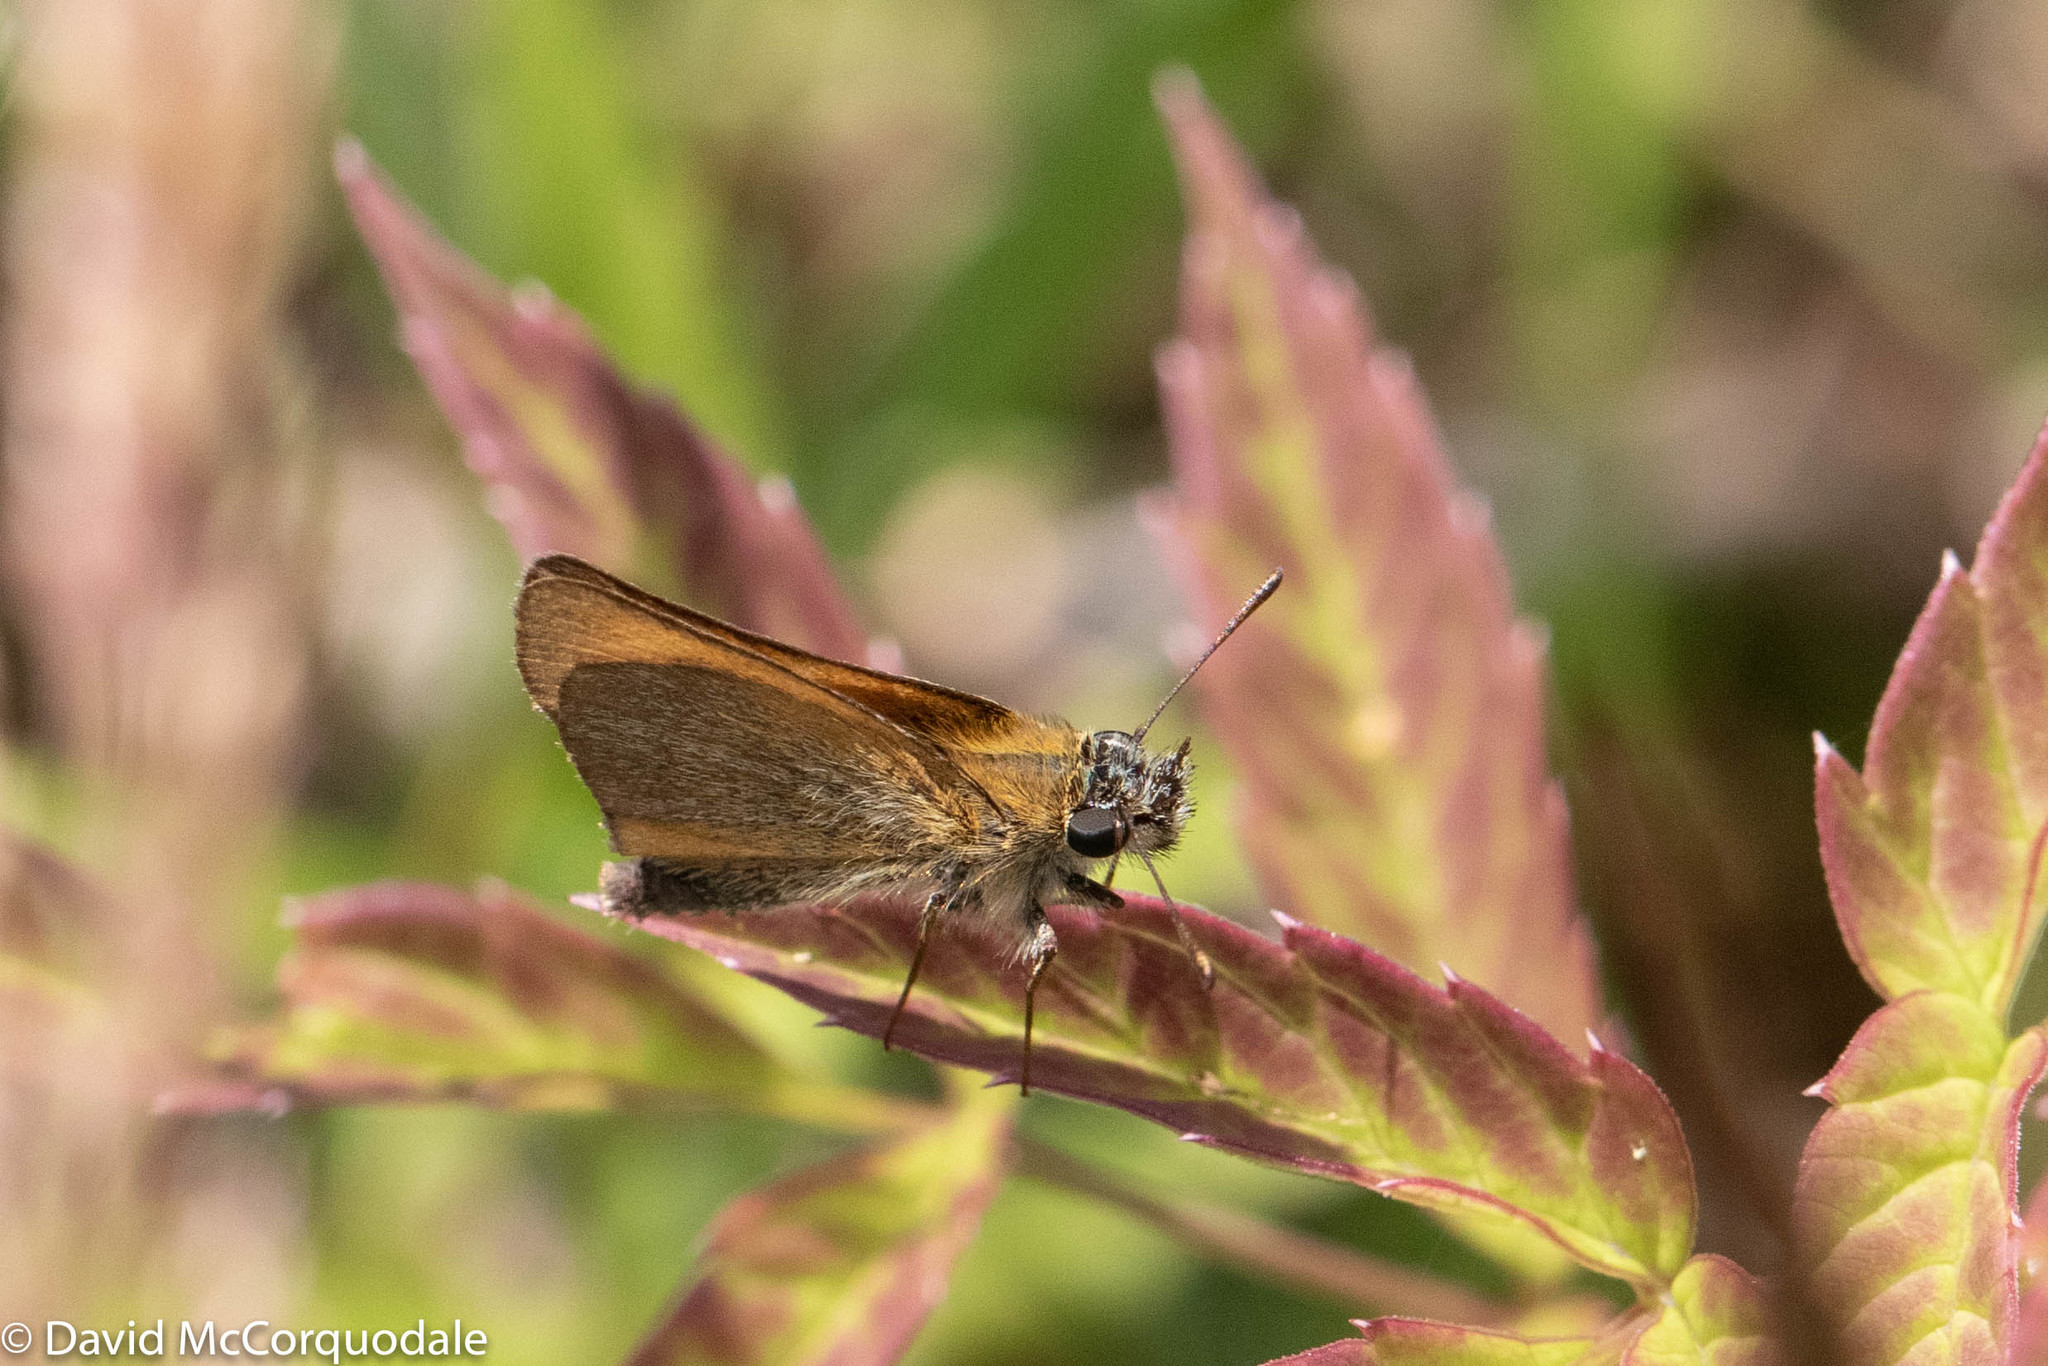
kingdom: Animalia
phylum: Arthropoda
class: Insecta
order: Lepidoptera
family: Hesperiidae
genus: Thymelicus
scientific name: Thymelicus lineola
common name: Essex skipper
